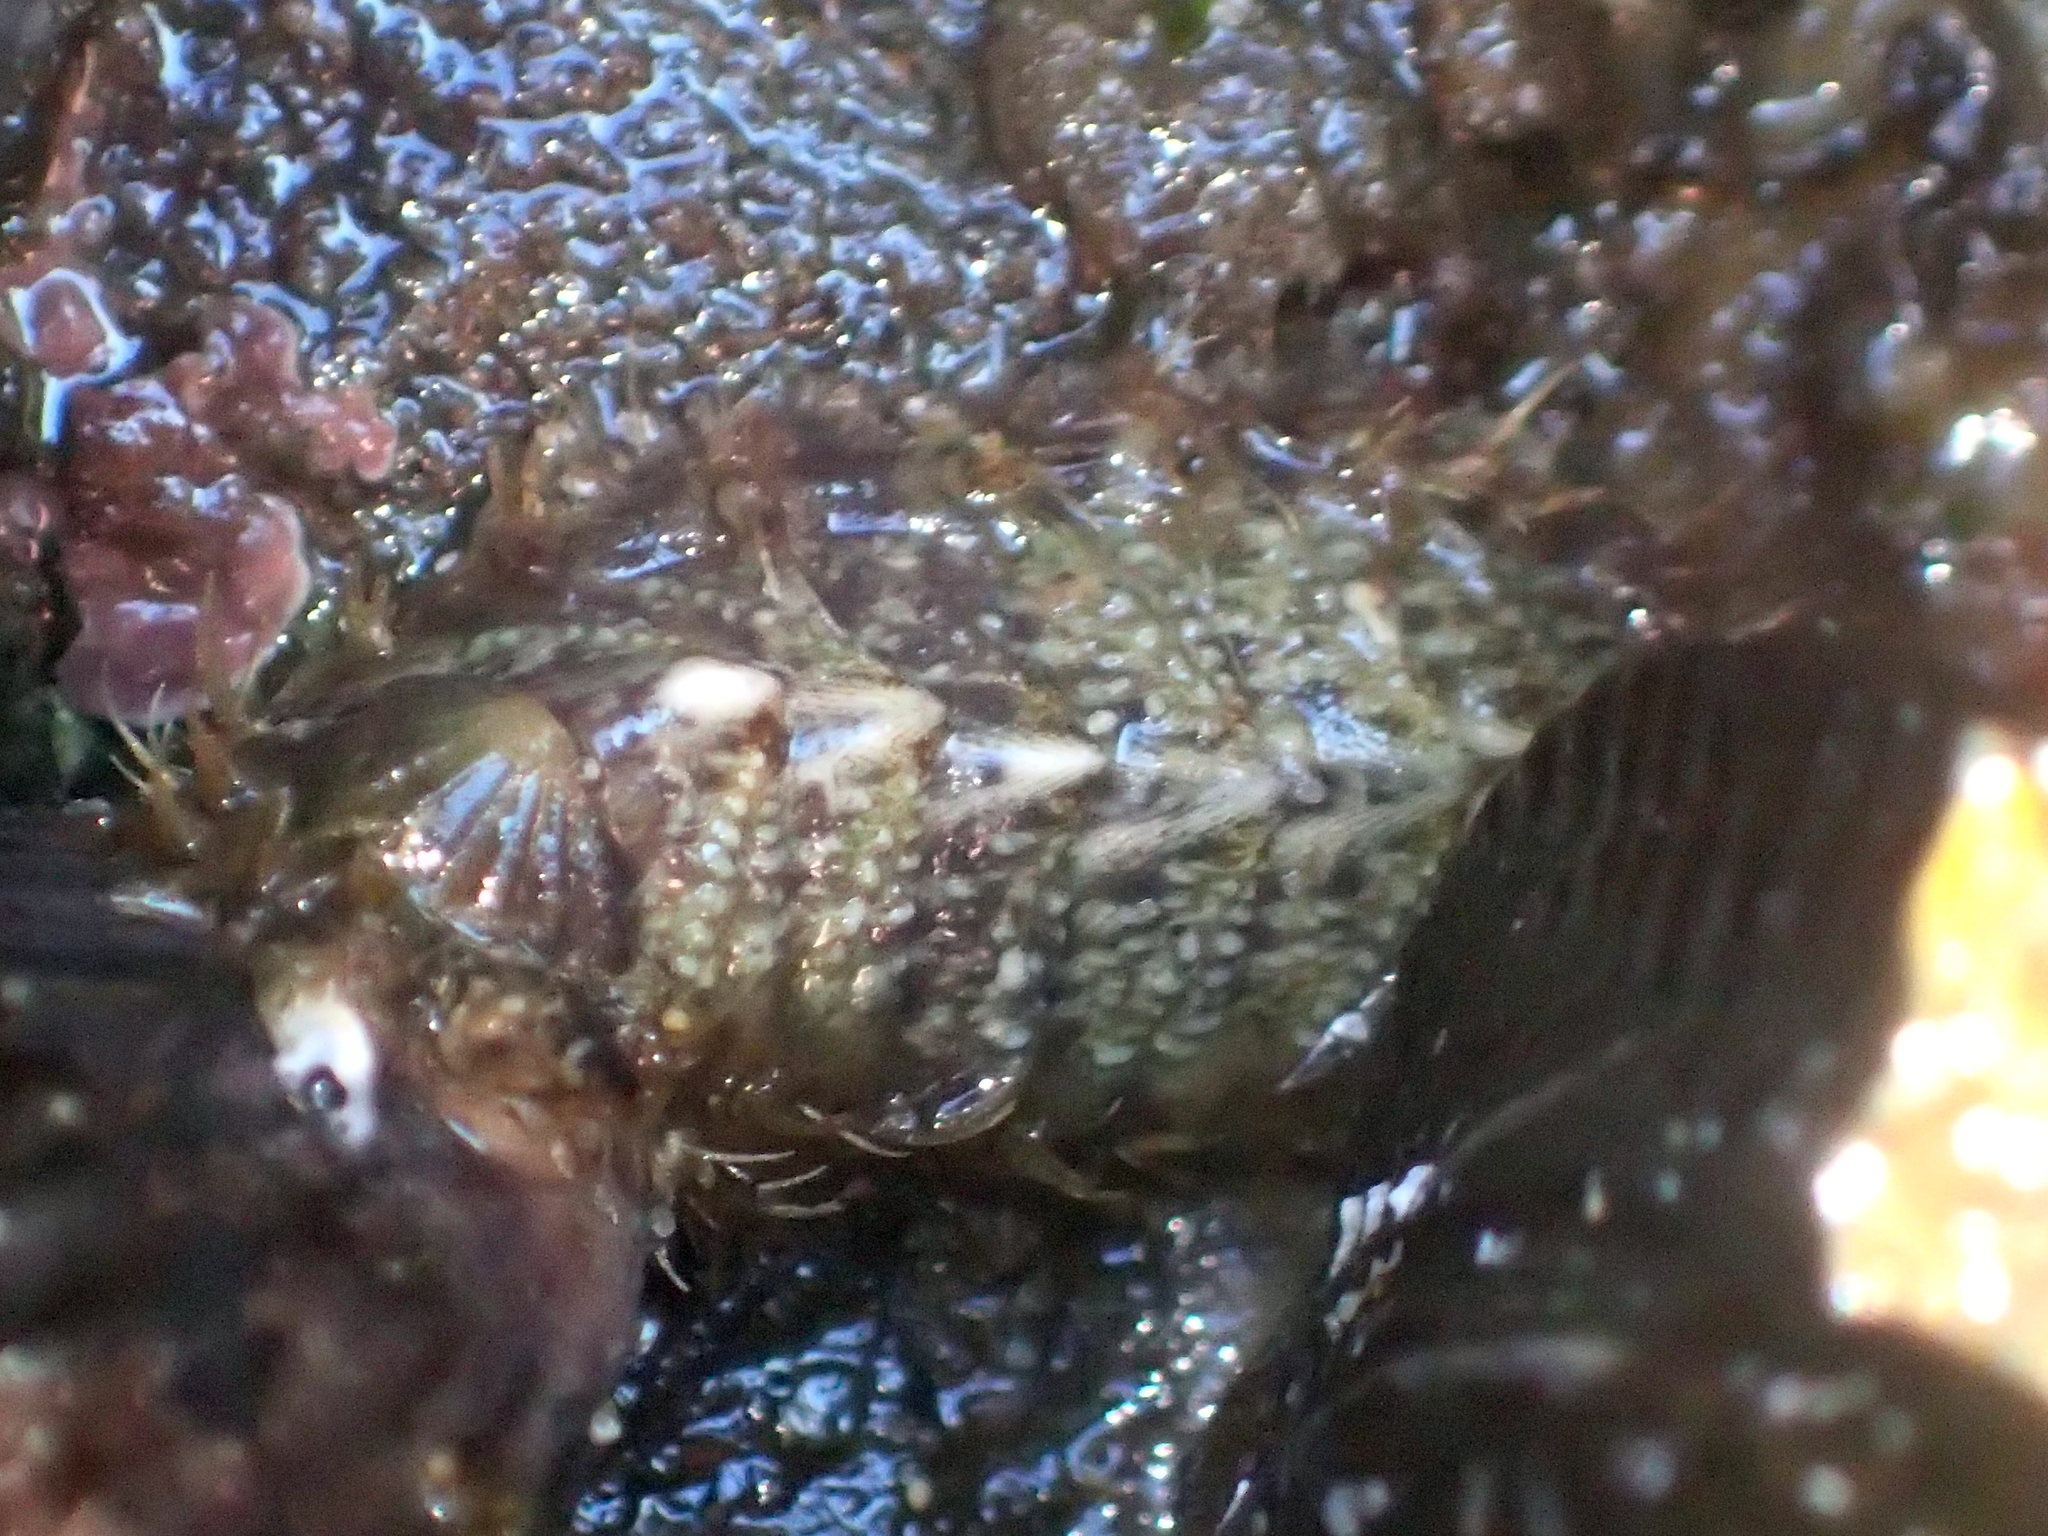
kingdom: Animalia
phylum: Mollusca
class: Polyplacophora
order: Chitonida
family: Mopaliidae
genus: Plaxiphora
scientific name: Plaxiphora caelata
